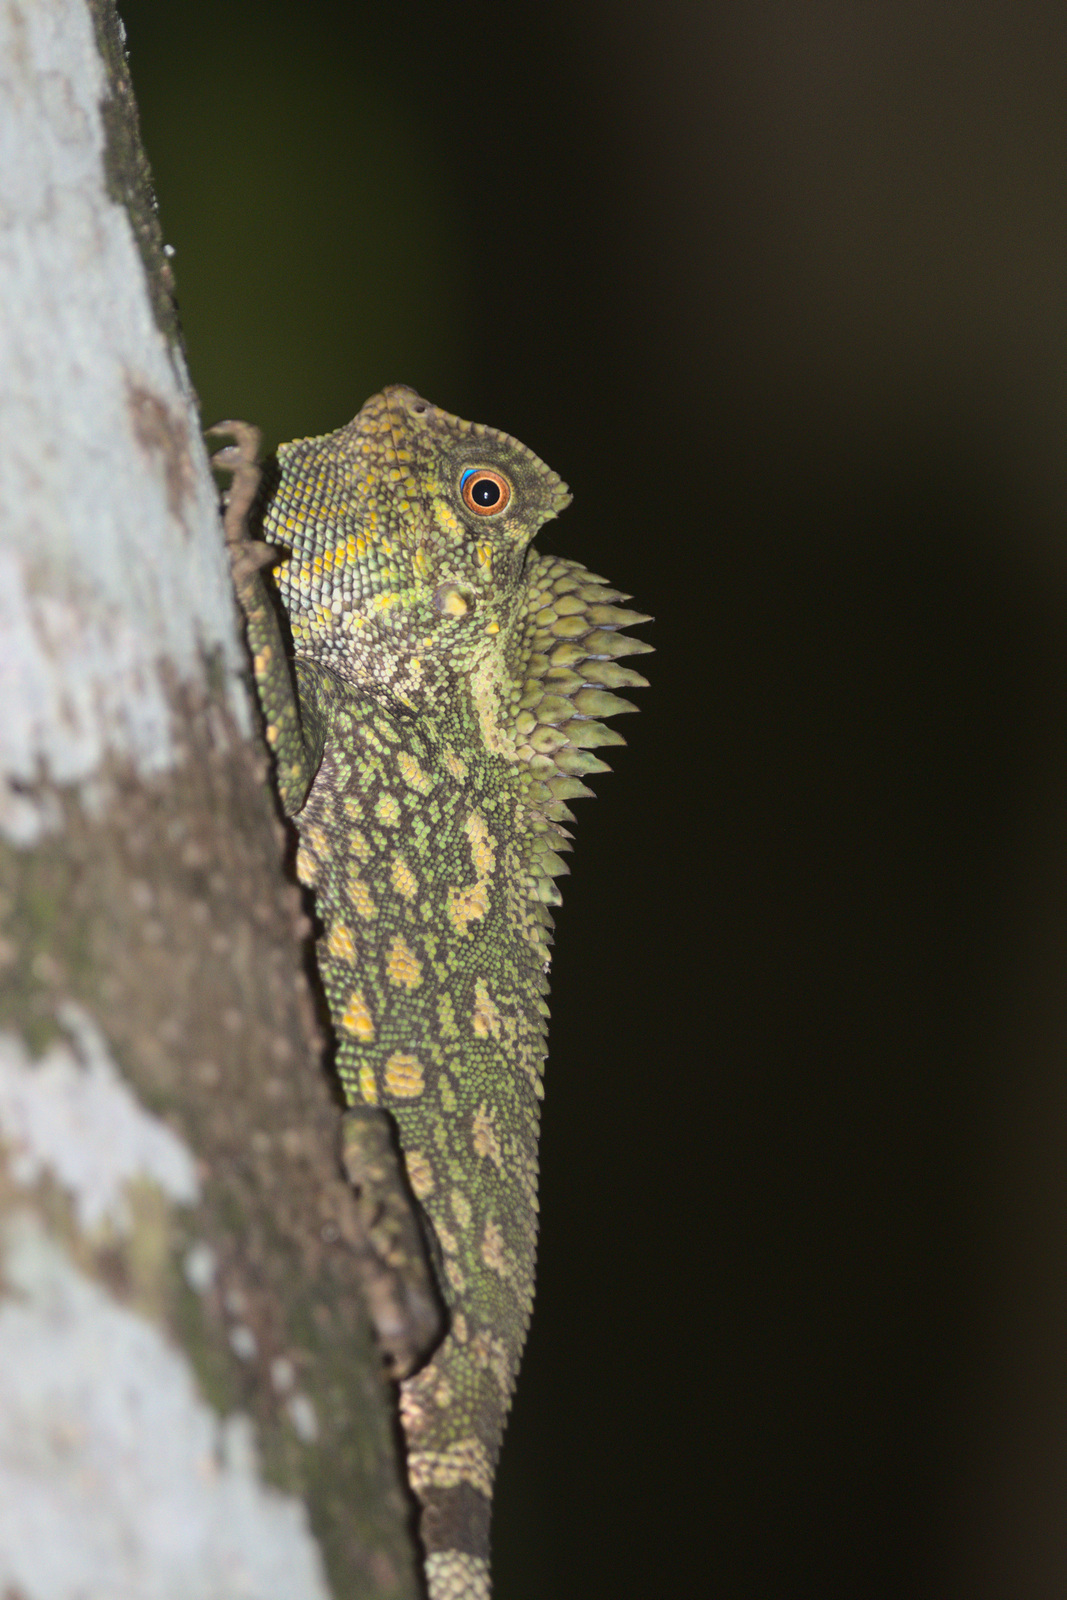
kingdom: Animalia
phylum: Chordata
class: Squamata
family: Agamidae
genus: Gonocephalus
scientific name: Gonocephalus chamaeleontinus
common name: Chameleon anglehead lizard
